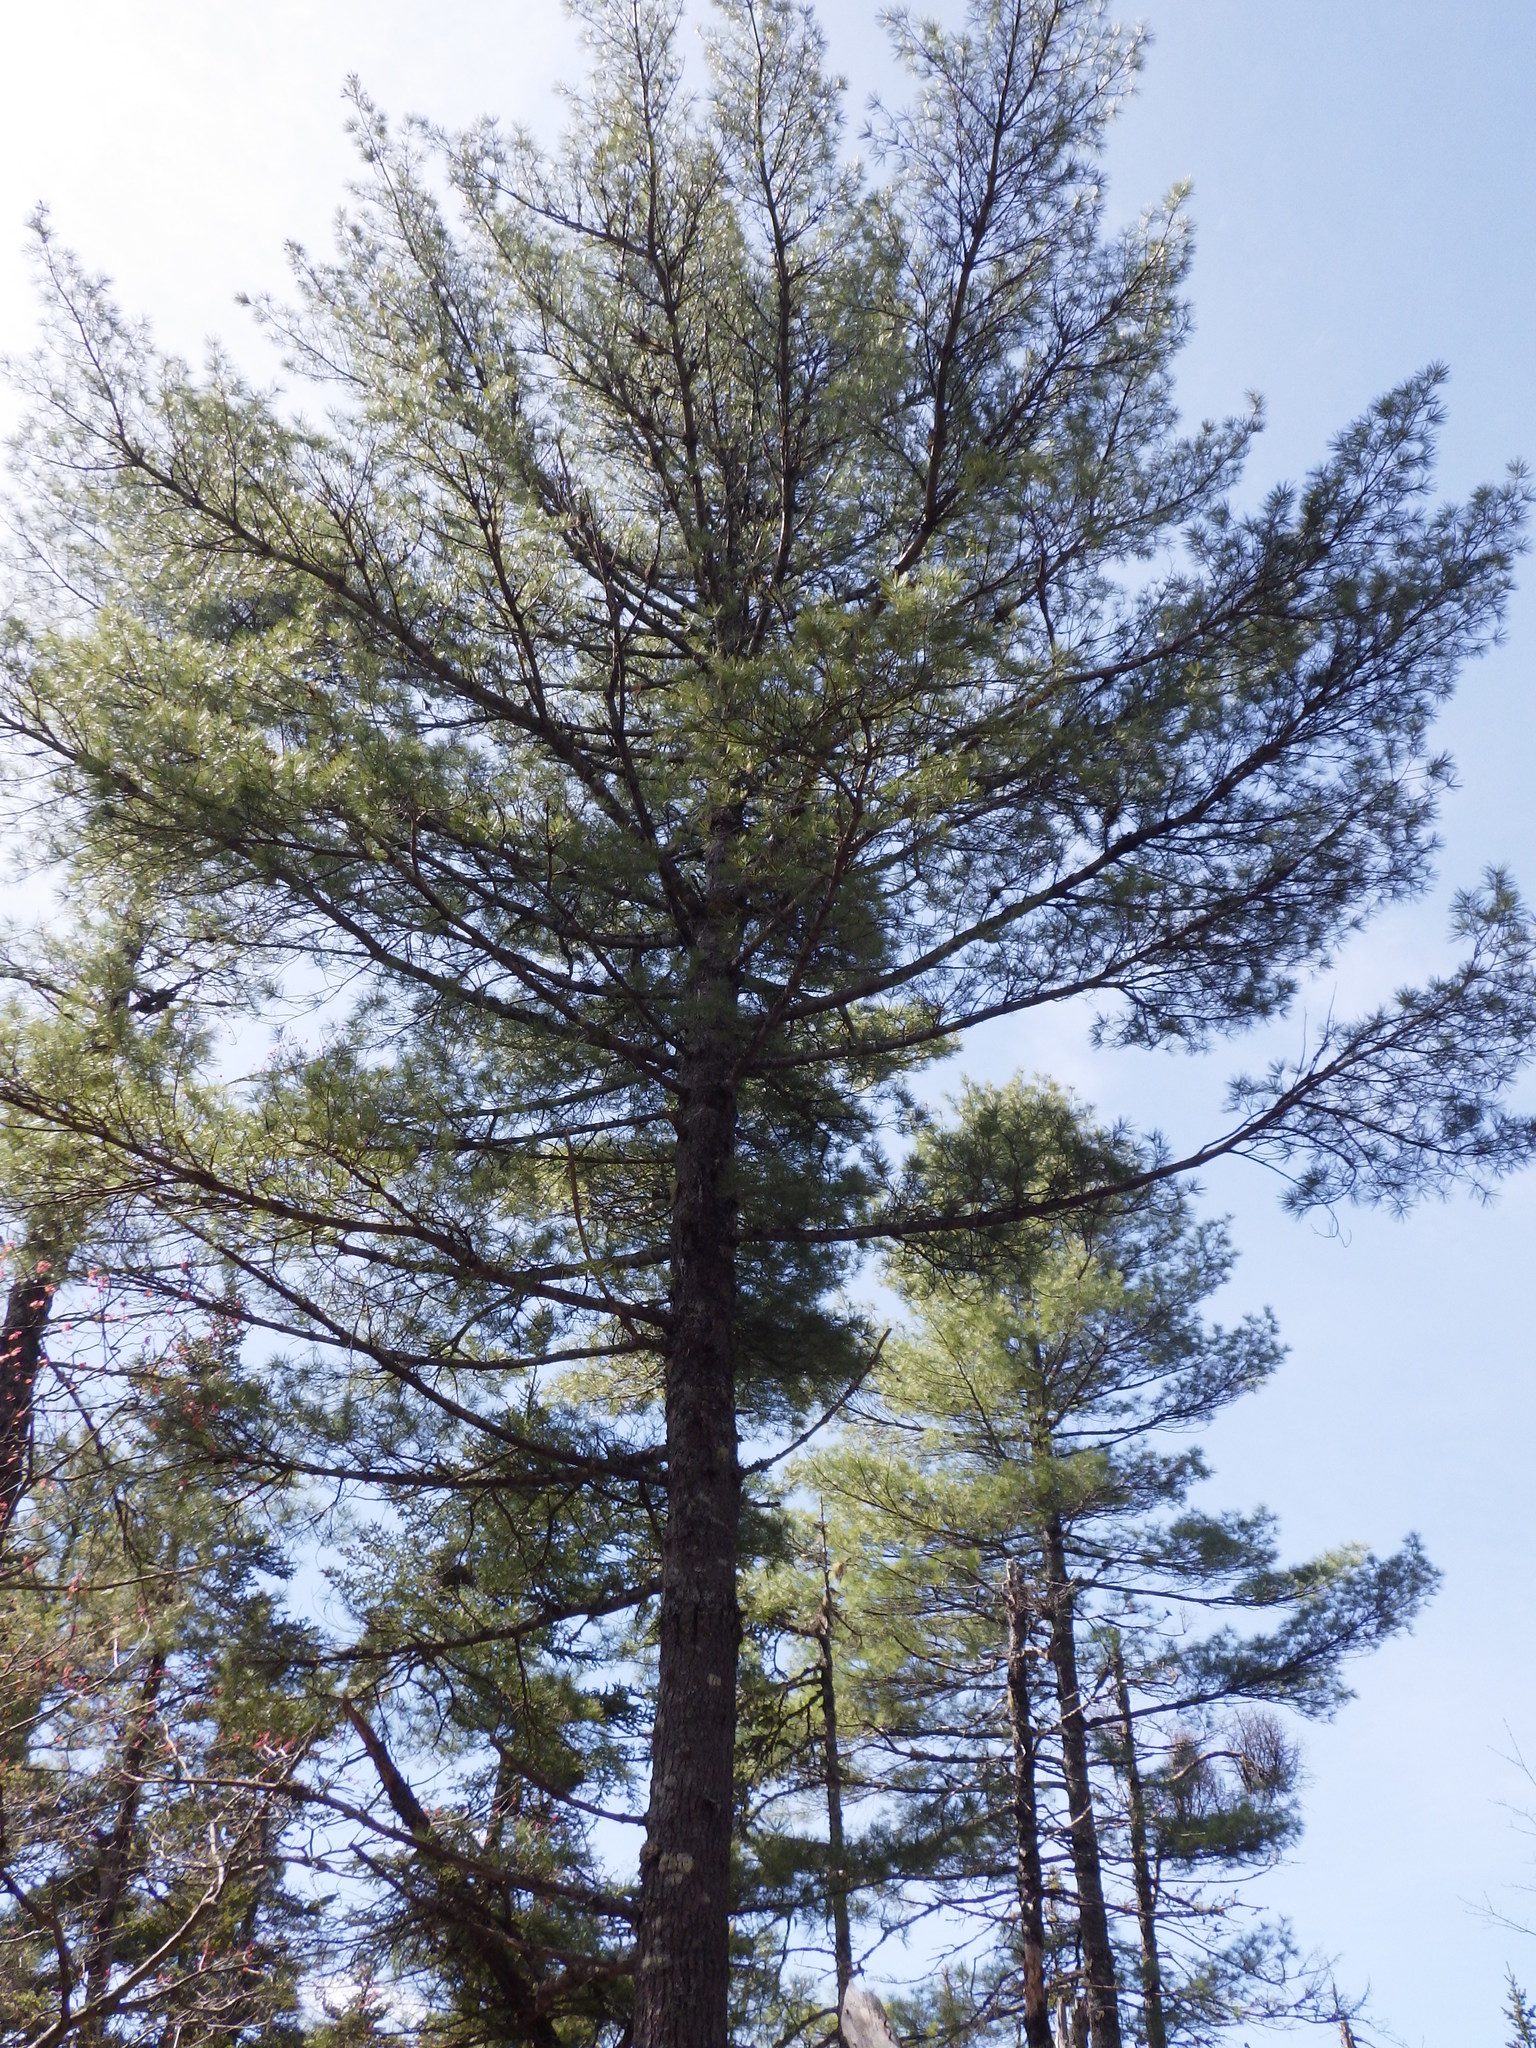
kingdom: Plantae
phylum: Tracheophyta
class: Pinopsida
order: Pinales
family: Pinaceae
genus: Pinus
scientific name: Pinus strobus
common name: Weymouth pine
